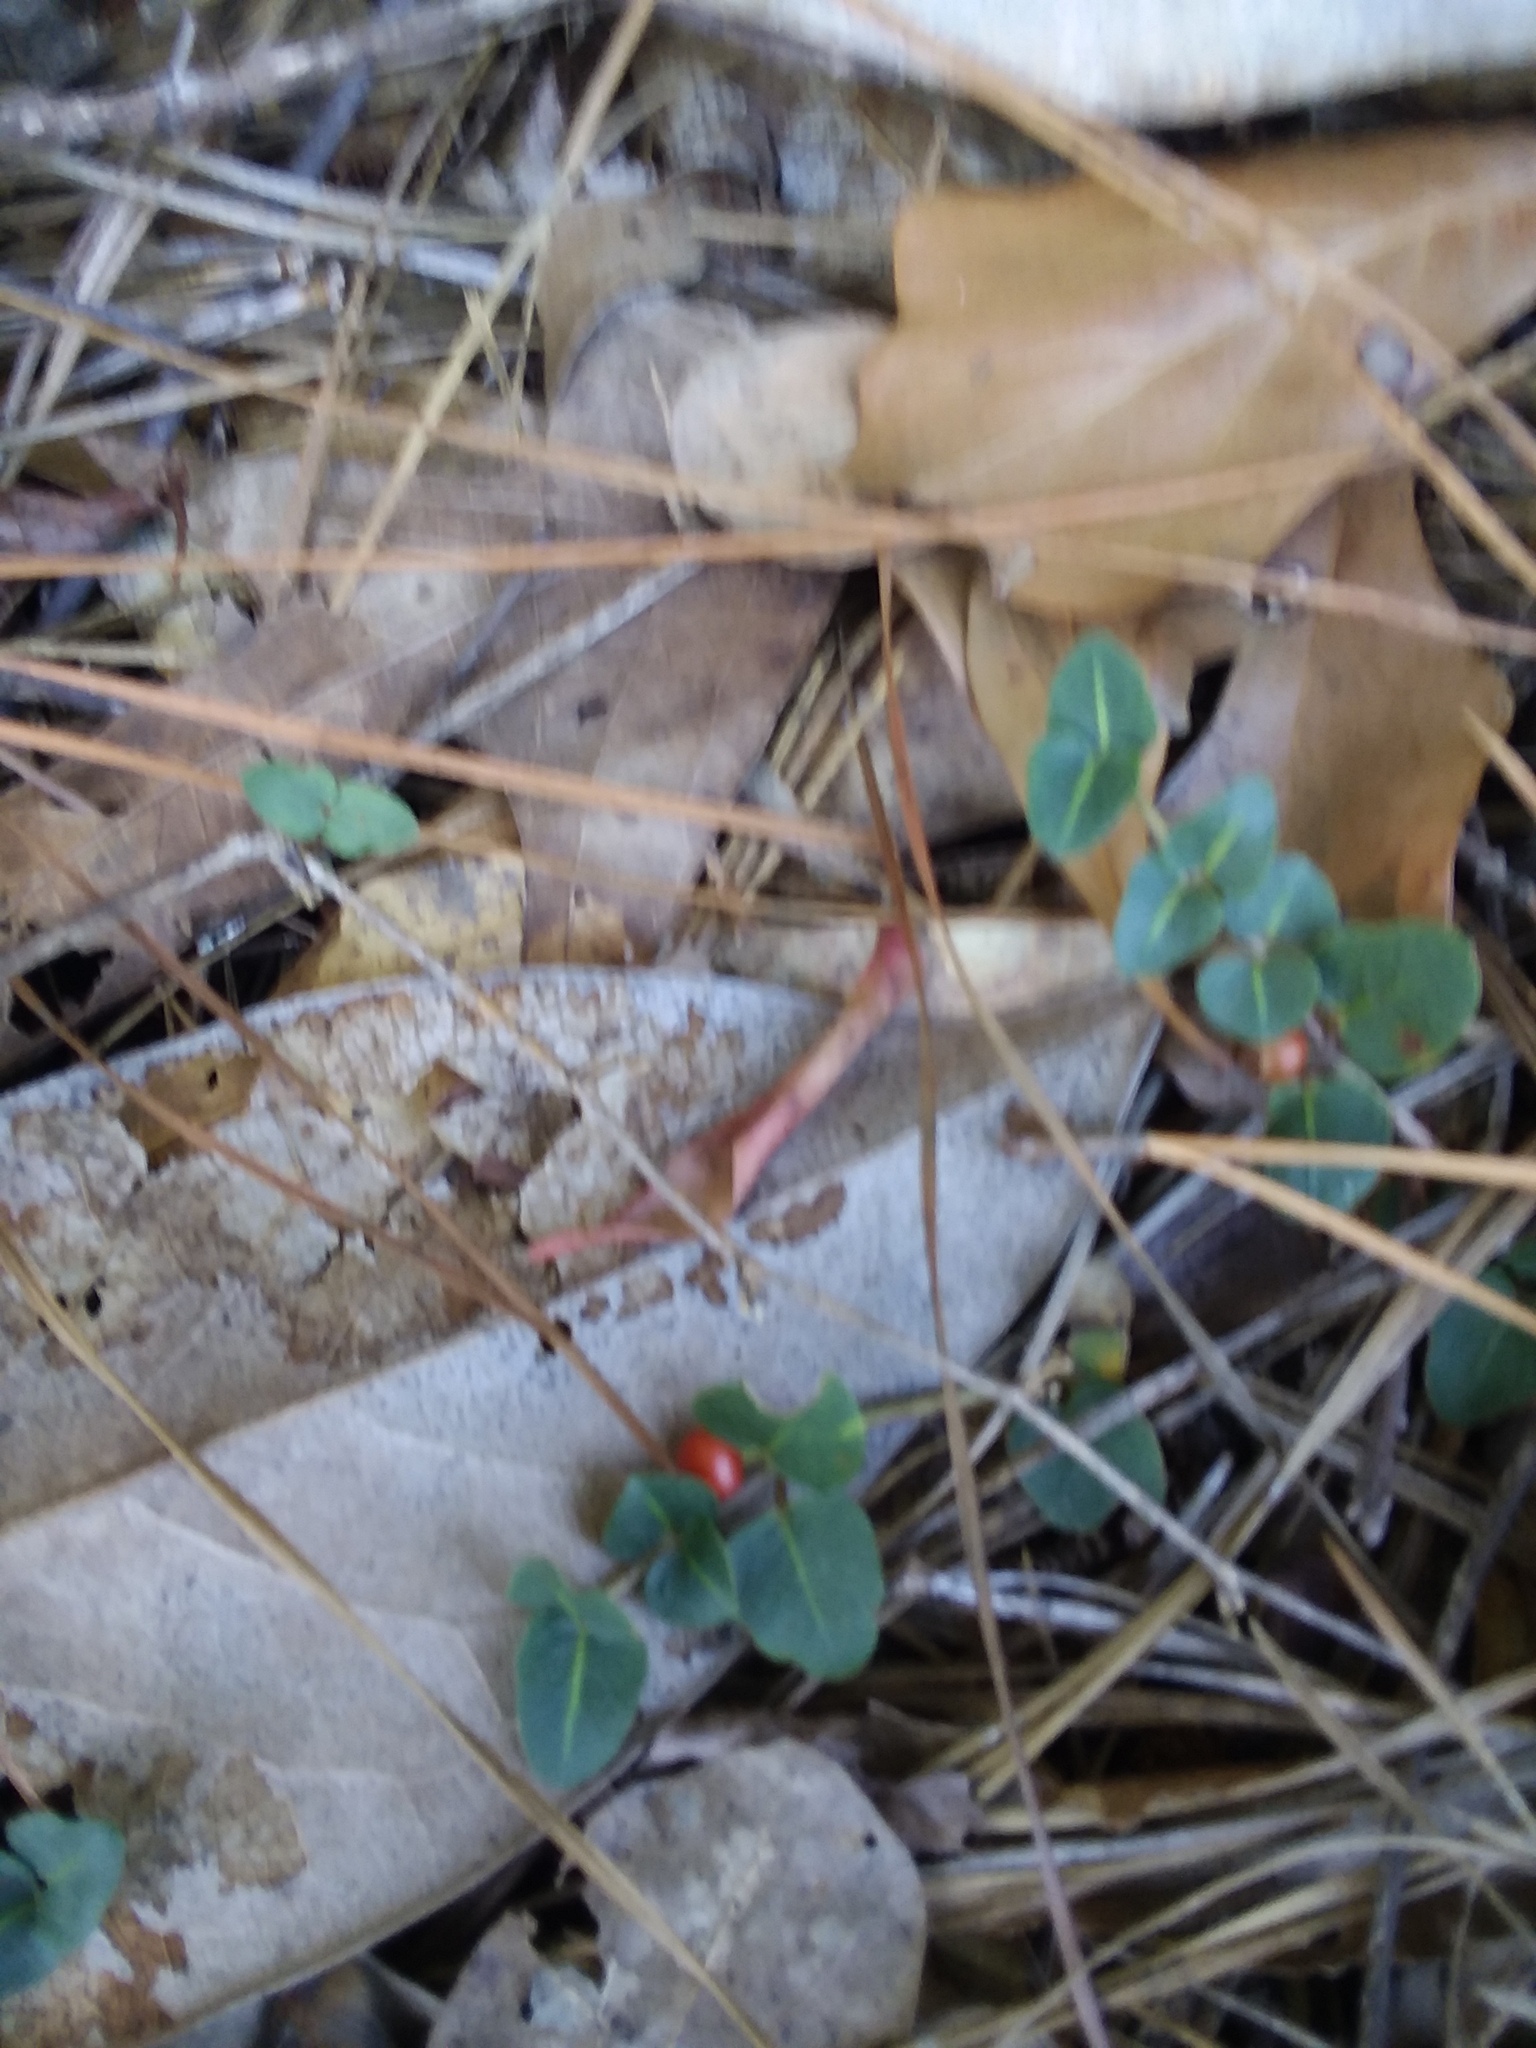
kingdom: Plantae
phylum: Tracheophyta
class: Magnoliopsida
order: Gentianales
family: Rubiaceae
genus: Mitchella
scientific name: Mitchella repens
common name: Partridge-berry
